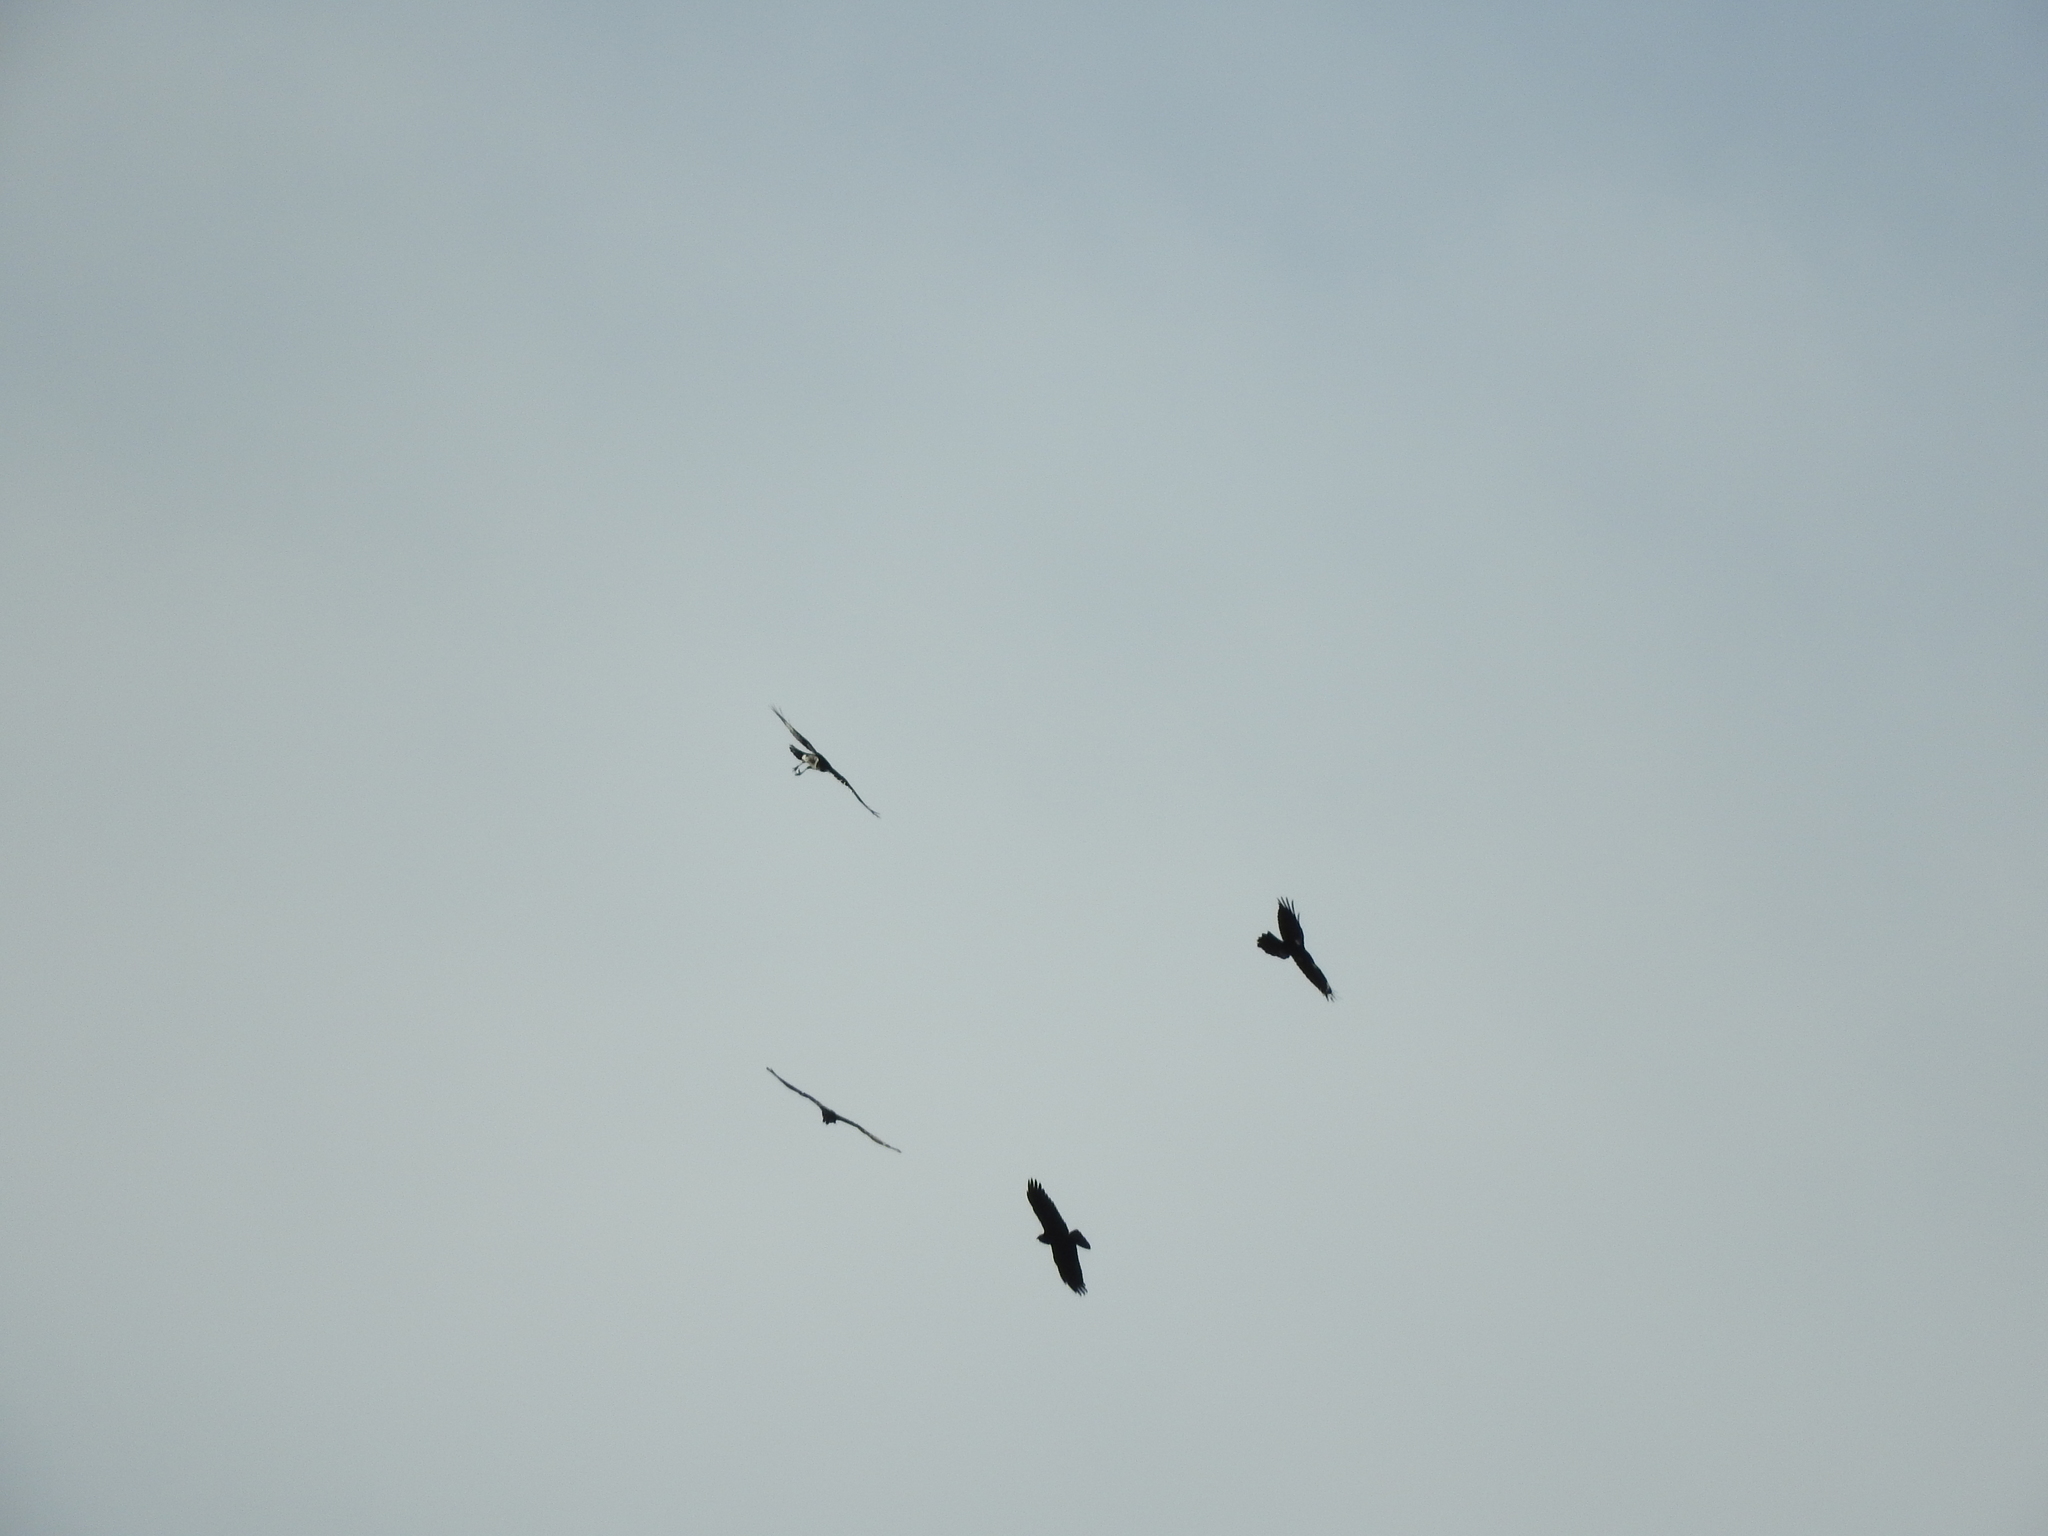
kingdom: Animalia
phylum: Chordata
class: Aves
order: Passeriformes
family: Corvidae
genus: Corvus
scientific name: Corvus corax
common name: Common raven
